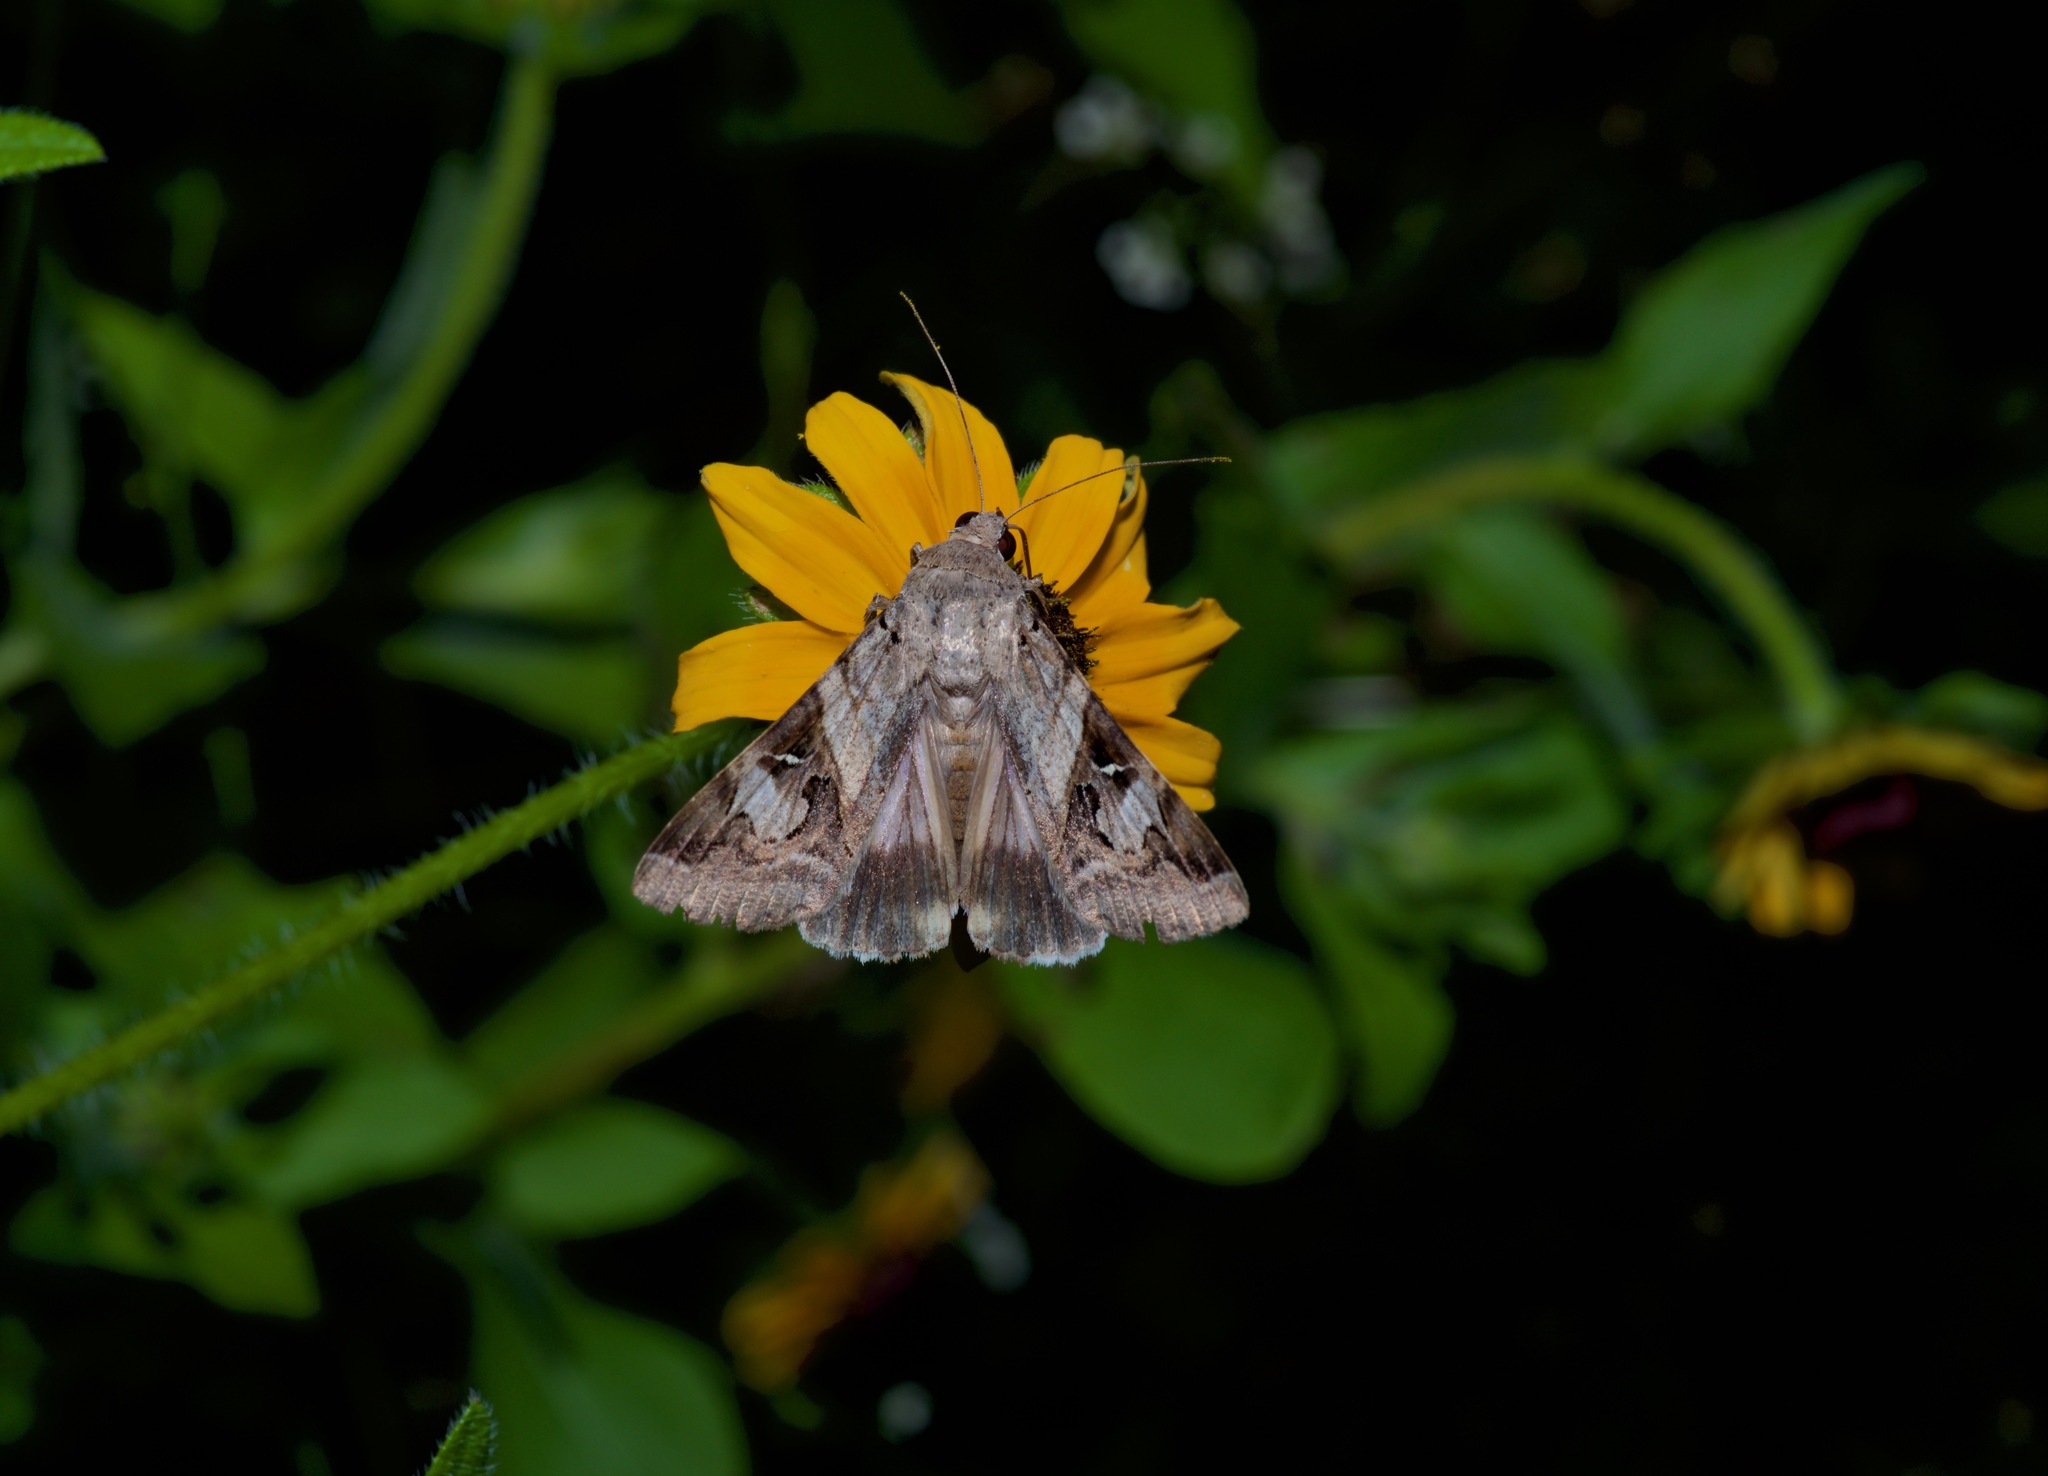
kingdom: Animalia
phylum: Arthropoda
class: Insecta
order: Lepidoptera
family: Erebidae
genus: Melipotis
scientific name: Melipotis indomita
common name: Moth
